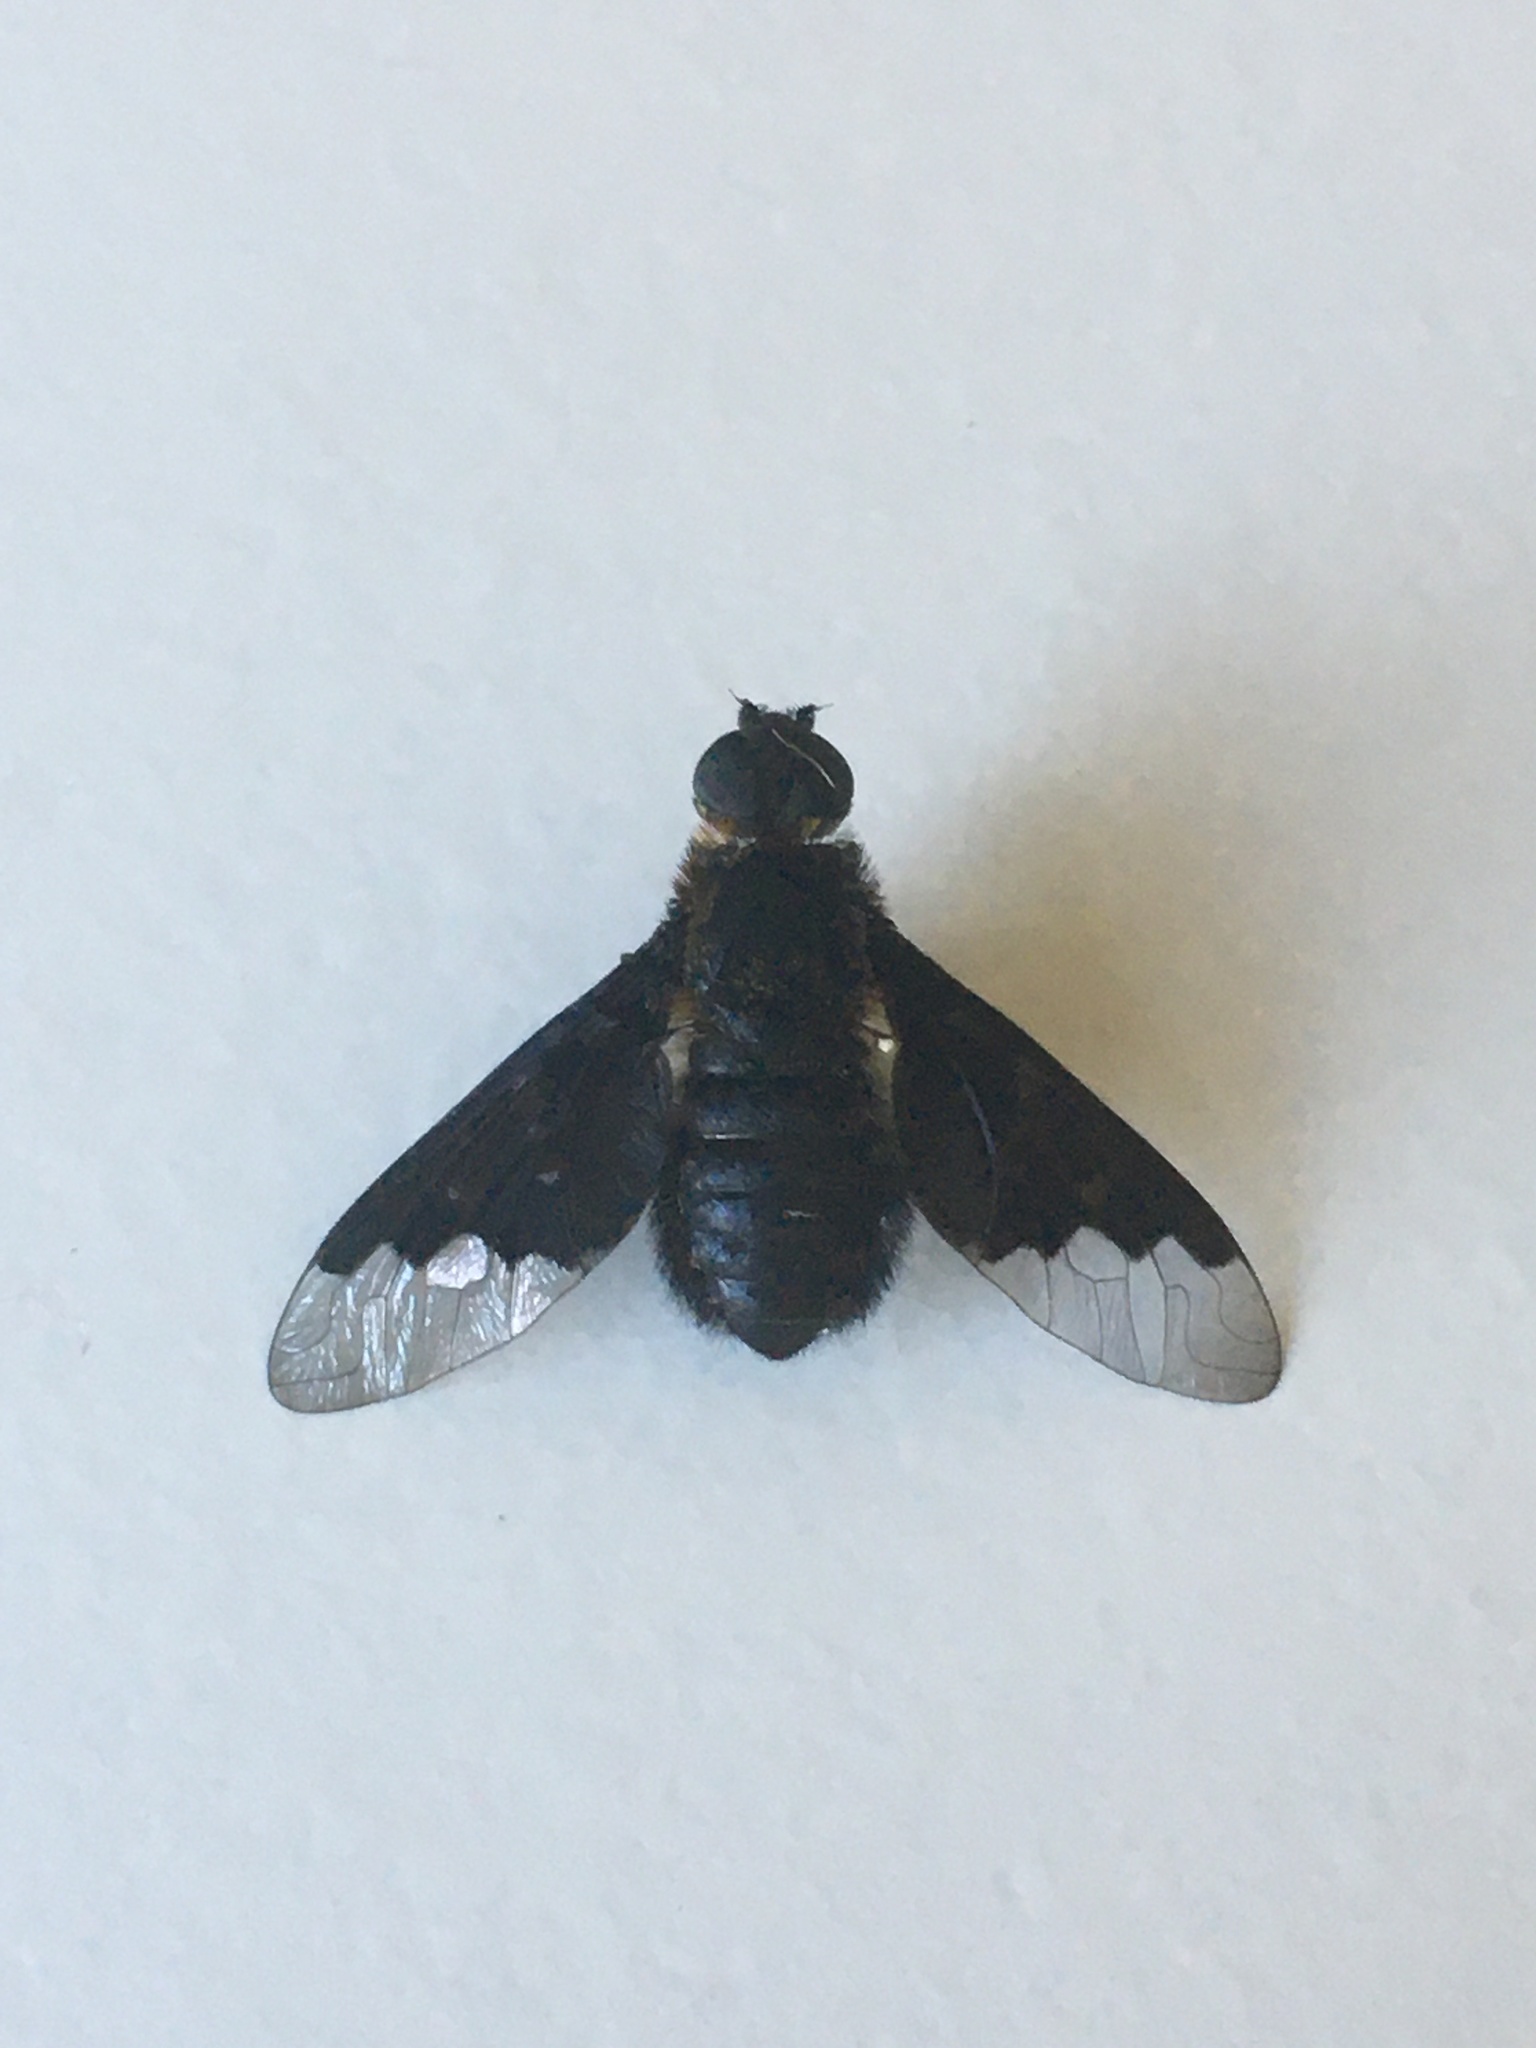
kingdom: Animalia
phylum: Arthropoda
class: Insecta
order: Diptera
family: Bombyliidae
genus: Hemipenthes
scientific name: Hemipenthes morio
